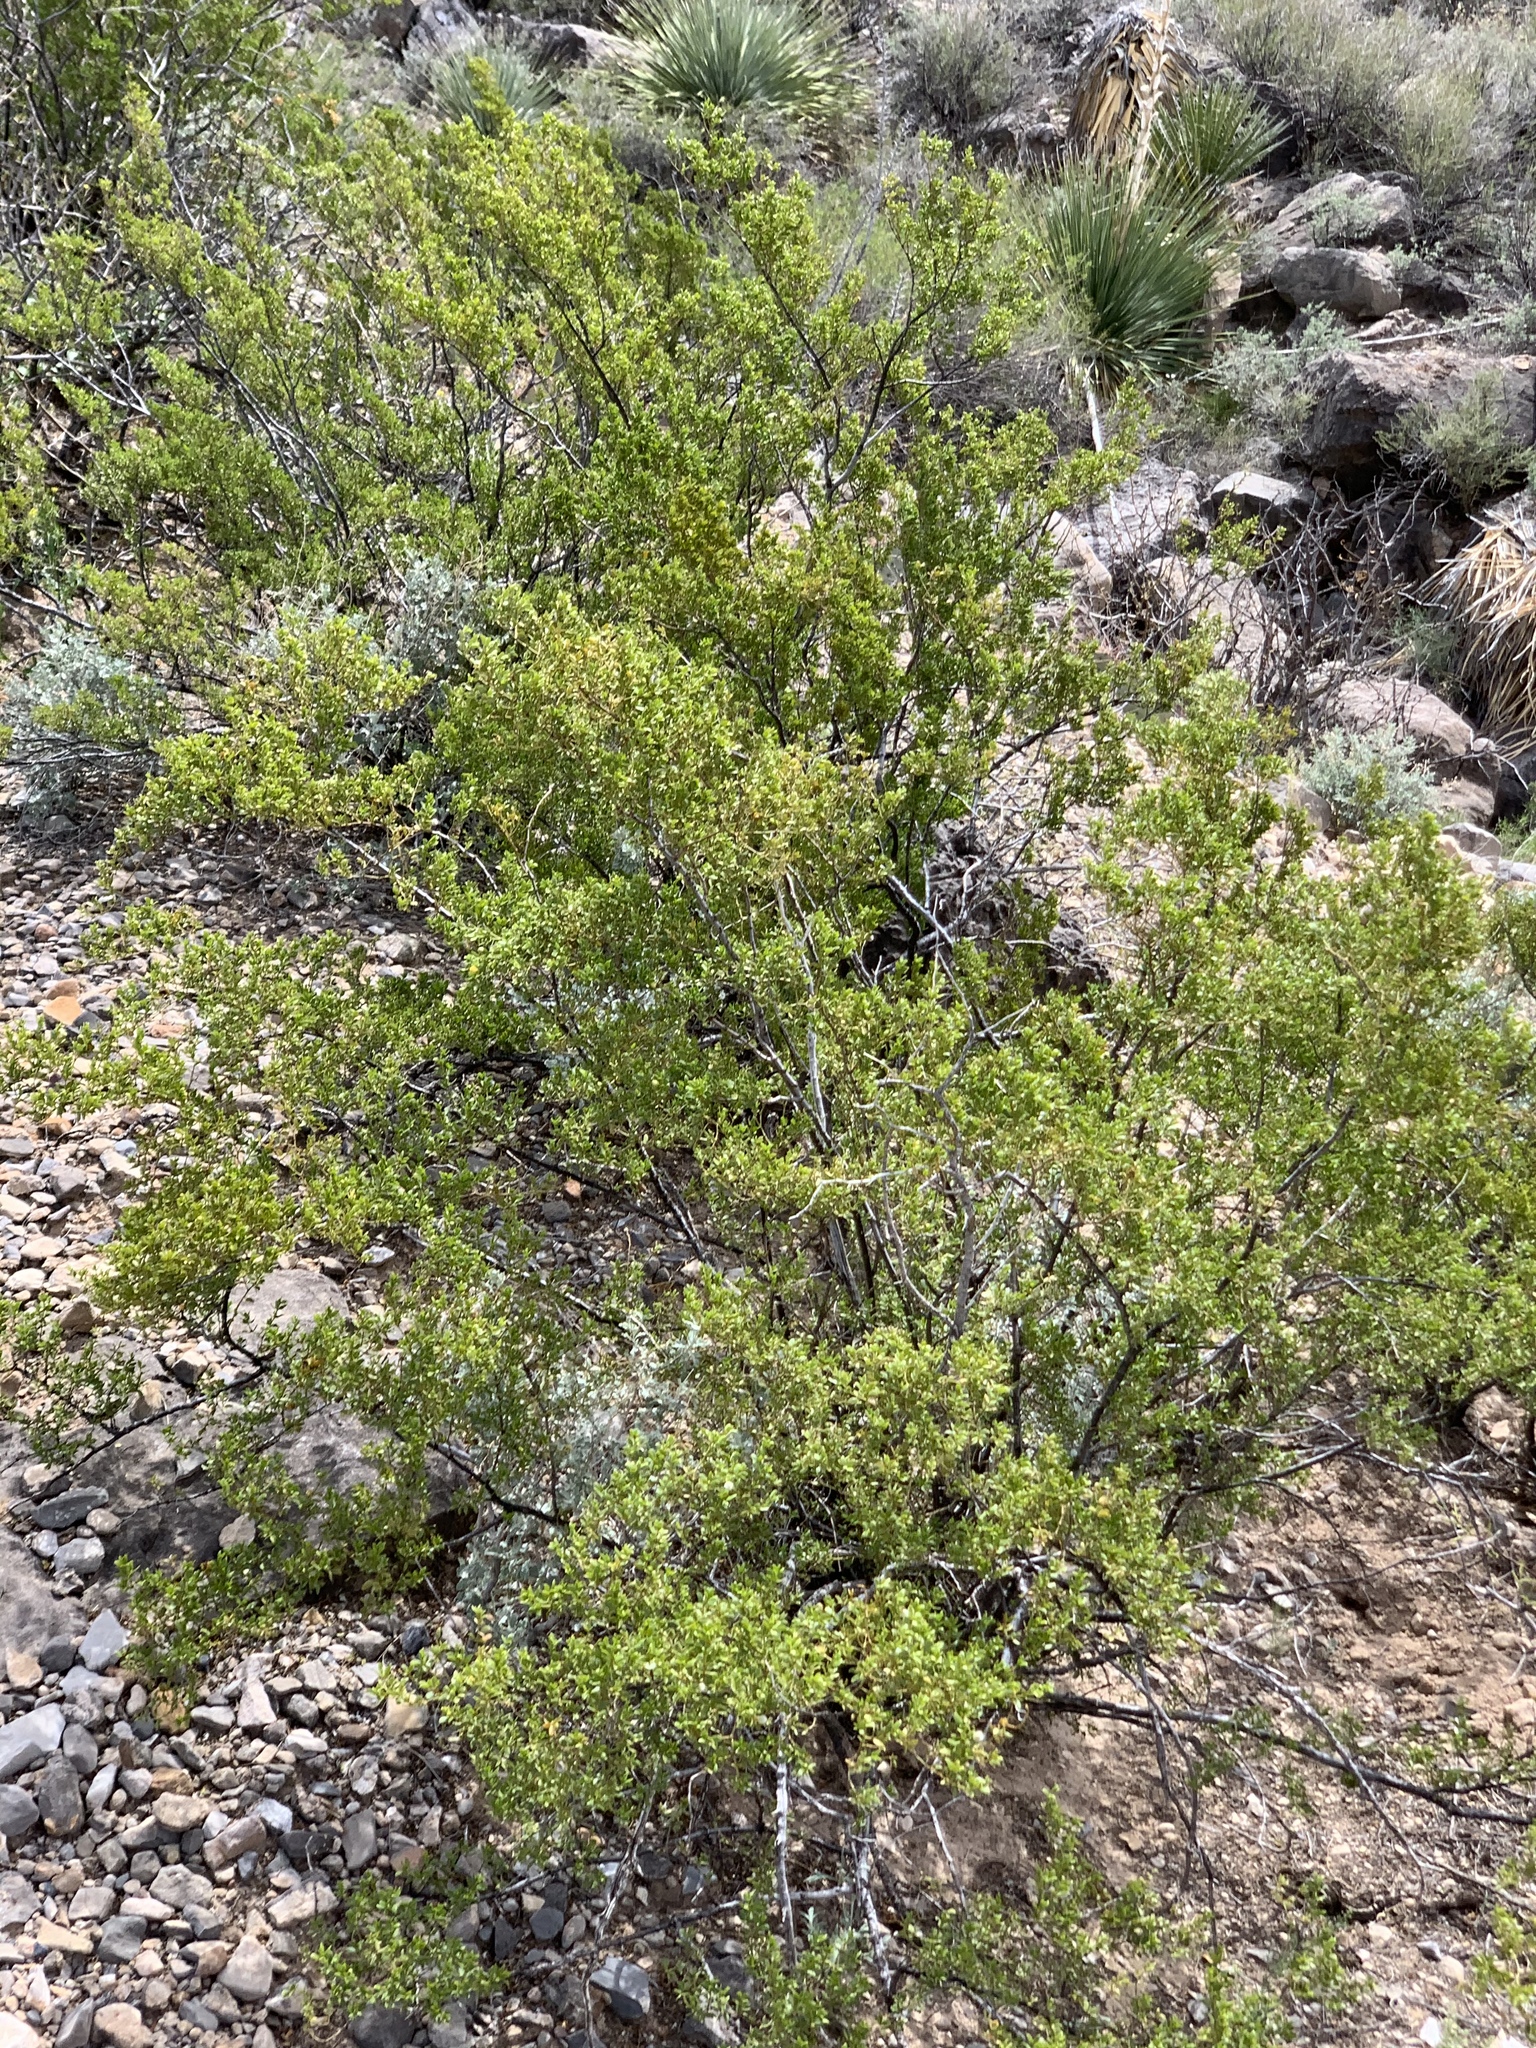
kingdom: Plantae
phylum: Tracheophyta
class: Magnoliopsida
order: Zygophyllales
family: Zygophyllaceae
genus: Larrea
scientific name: Larrea tridentata
